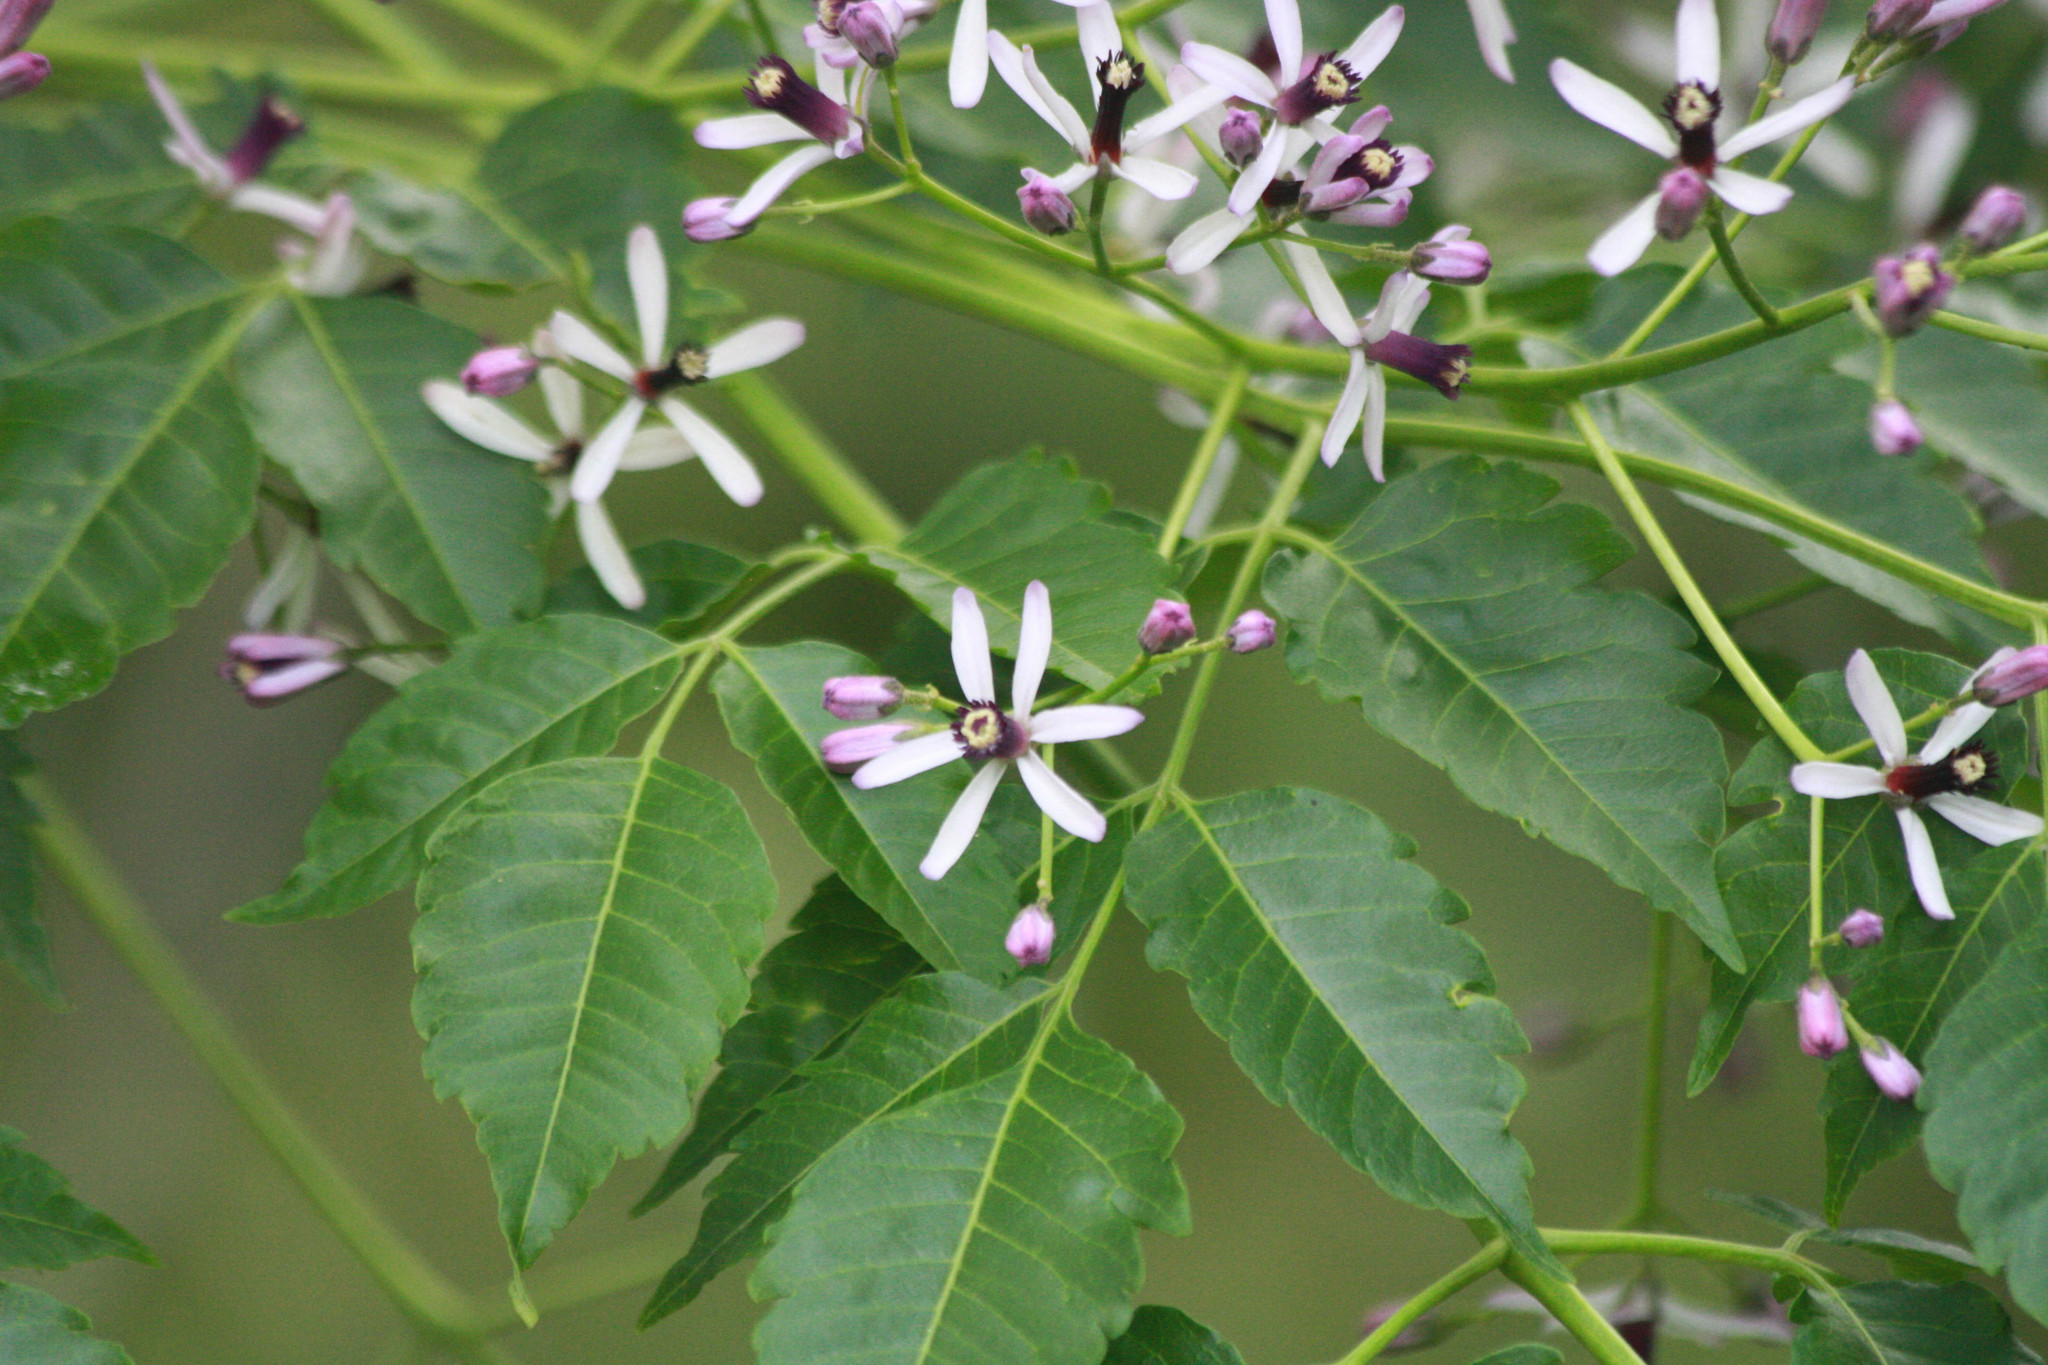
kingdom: Plantae
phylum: Tracheophyta
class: Magnoliopsida
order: Sapindales
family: Meliaceae
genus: Melia
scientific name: Melia azedarach
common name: Chinaberrytree
